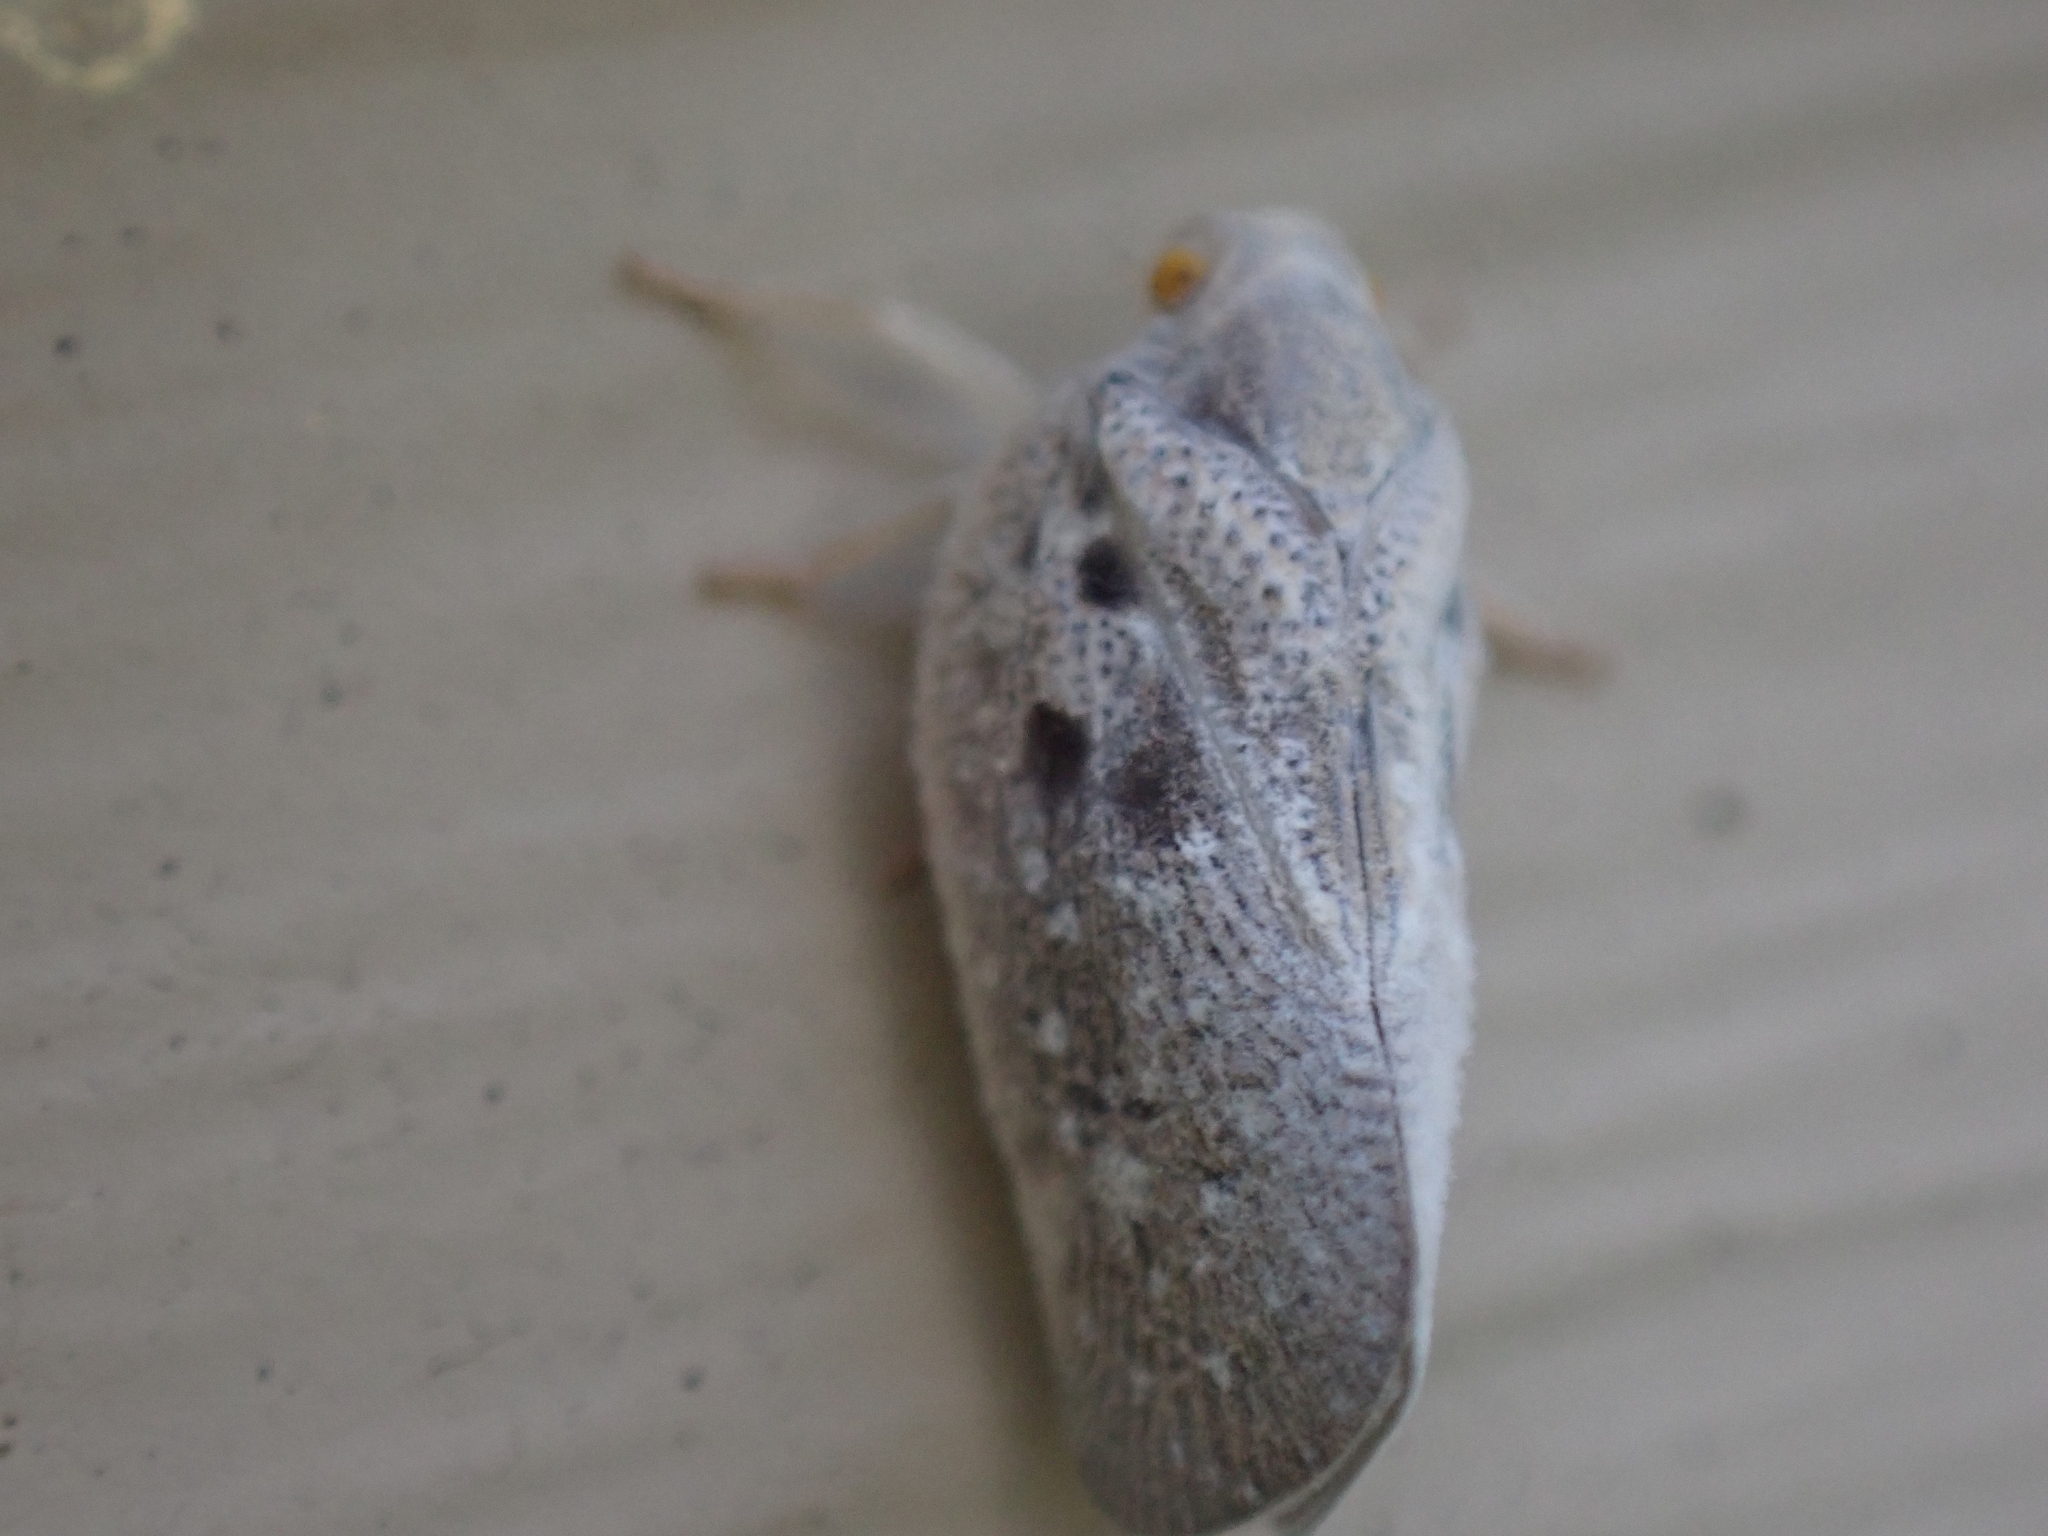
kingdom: Animalia
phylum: Arthropoda
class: Insecta
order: Hemiptera
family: Flatidae
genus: Metcalfa
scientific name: Metcalfa pruinosa
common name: Citrus flatid planthopper
